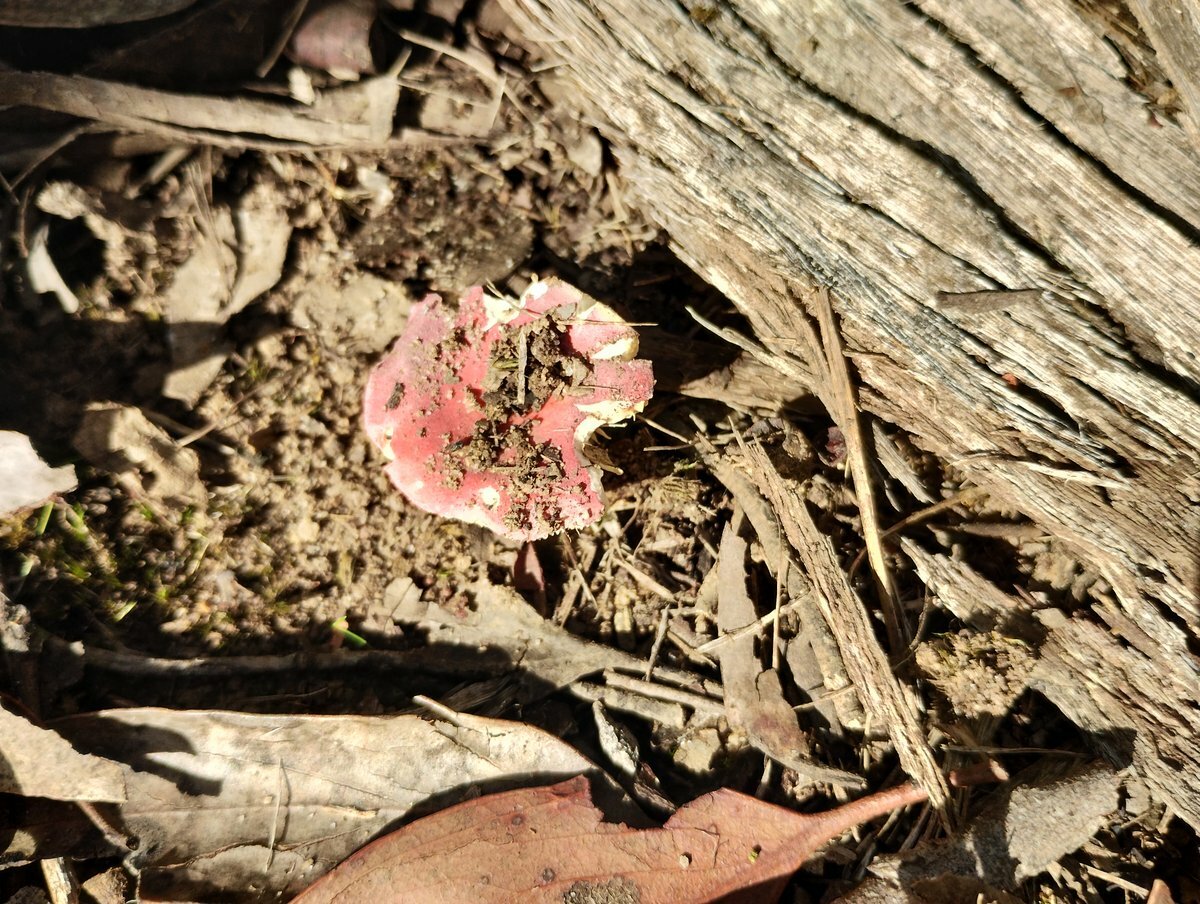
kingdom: Fungi
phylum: Basidiomycota
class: Agaricomycetes
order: Russulales
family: Russulaceae
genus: Russula
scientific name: Russula clelandii
